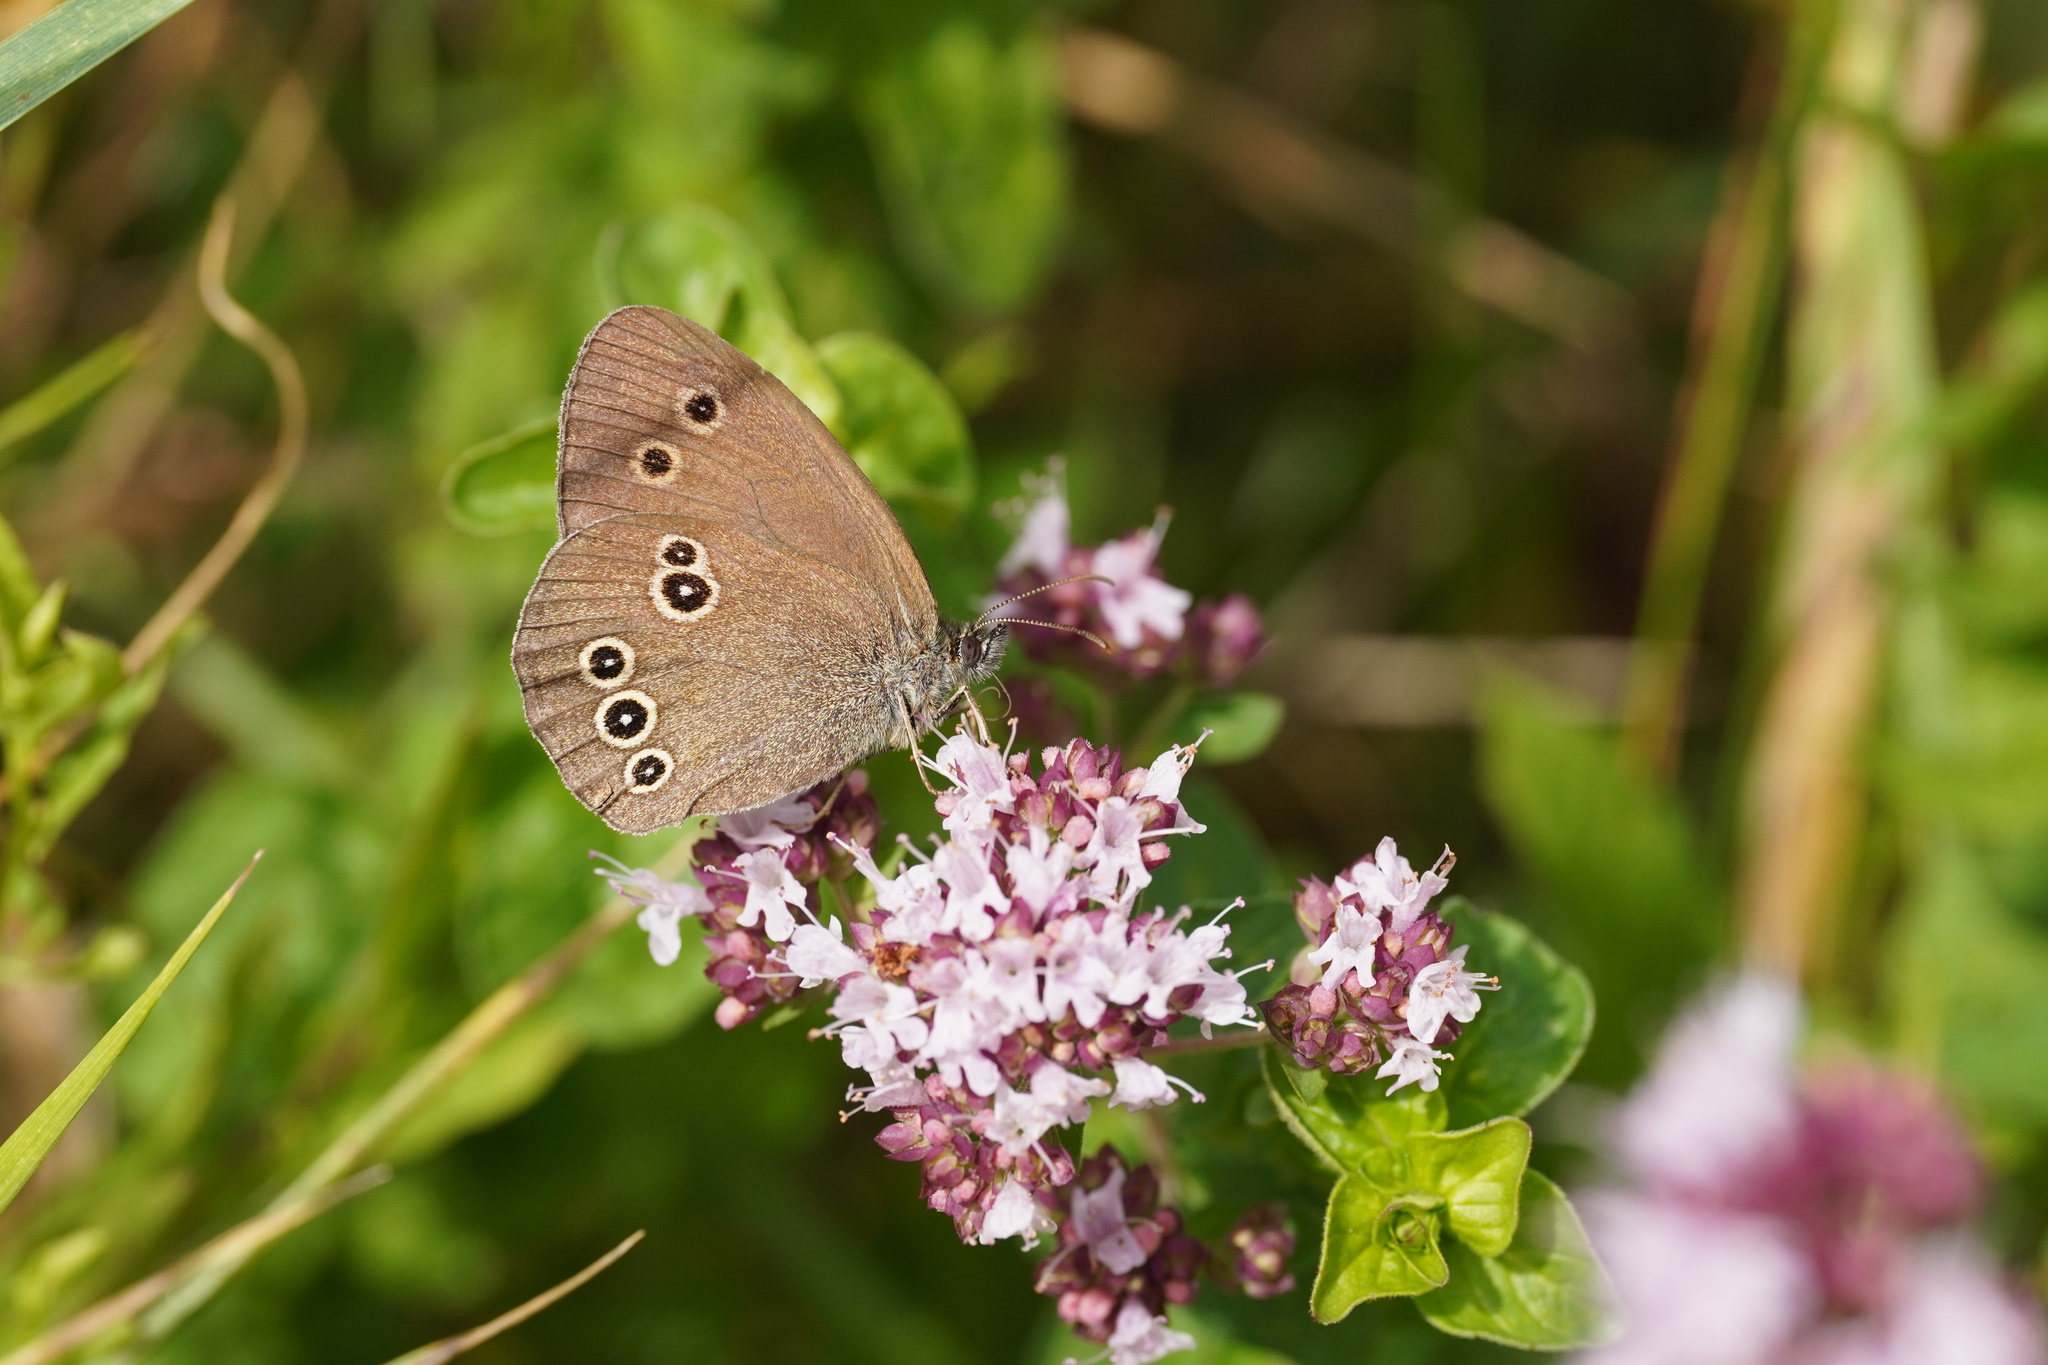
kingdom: Animalia
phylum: Arthropoda
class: Insecta
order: Lepidoptera
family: Nymphalidae
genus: Aphantopus
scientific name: Aphantopus hyperantus
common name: Ringlet
